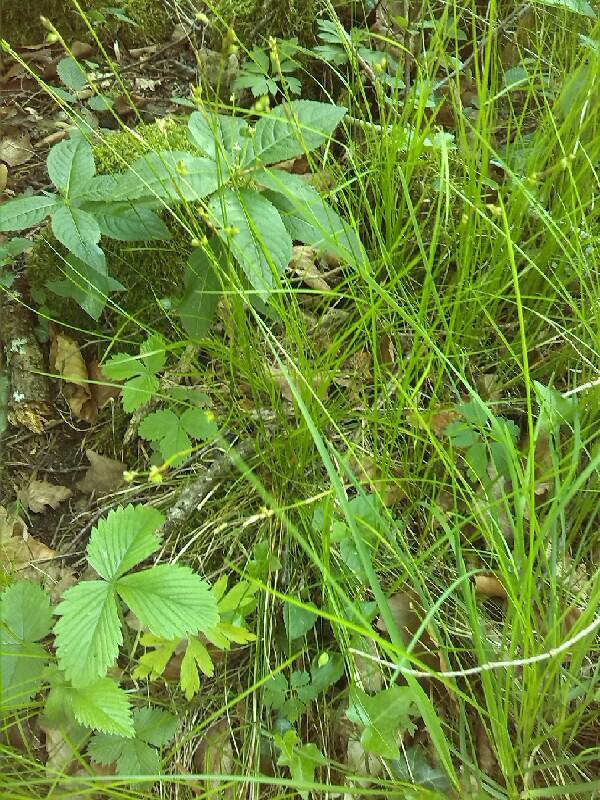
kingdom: Plantae
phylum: Tracheophyta
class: Liliopsida
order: Poales
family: Cyperaceae
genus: Carex
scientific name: Carex alba
